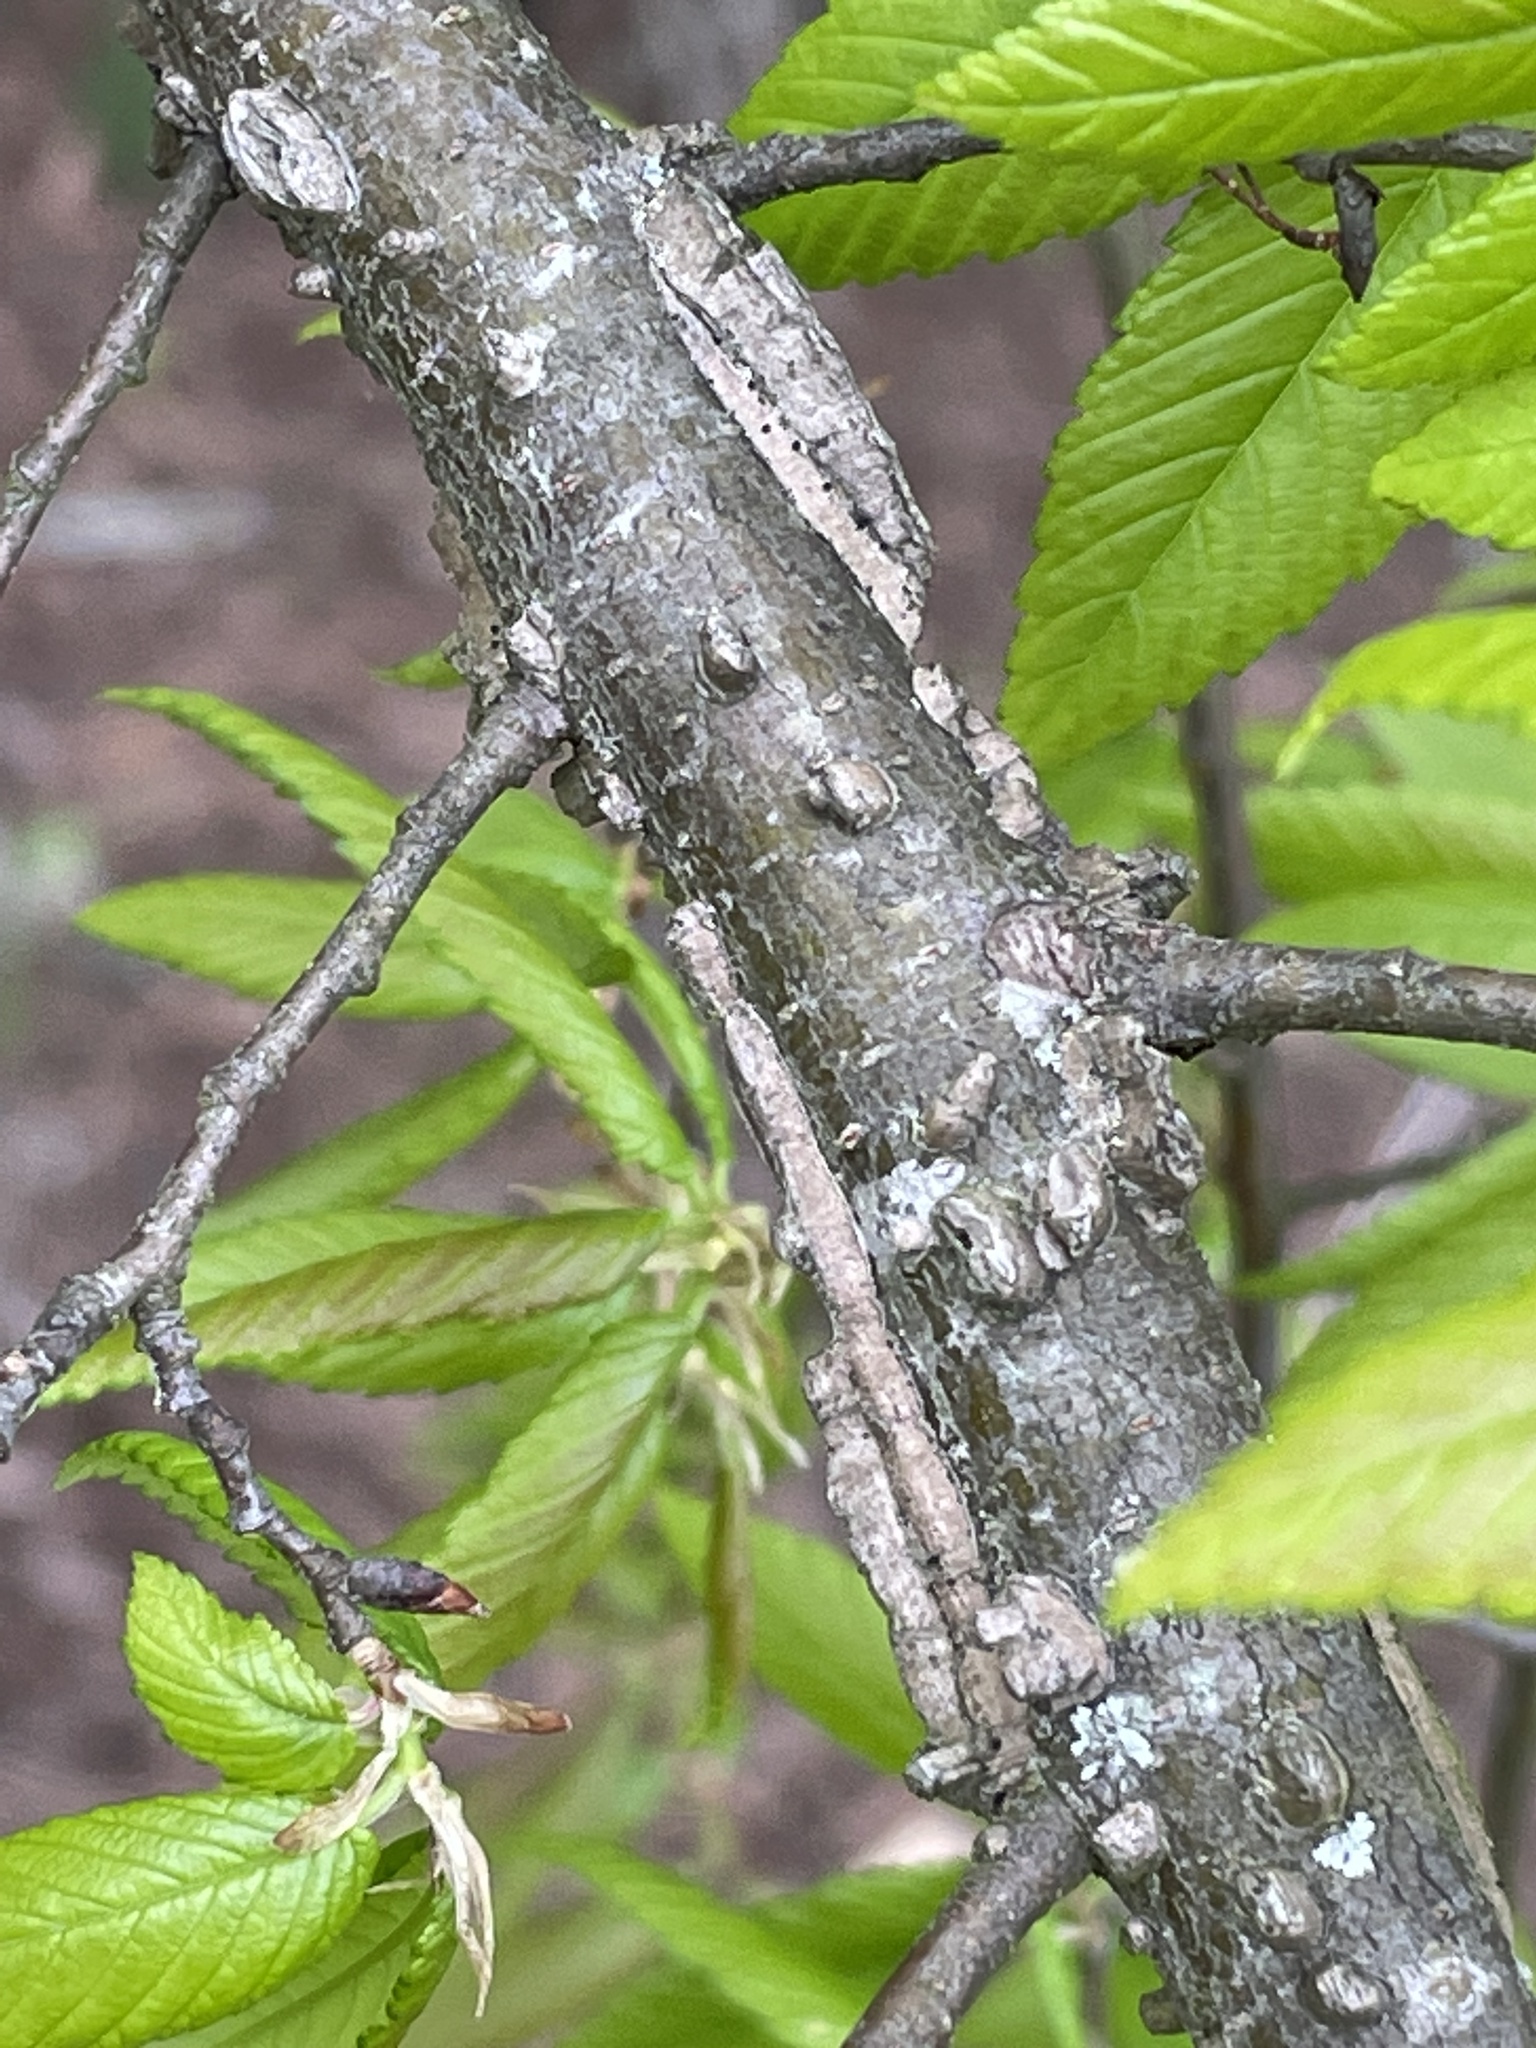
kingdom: Plantae
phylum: Tracheophyta
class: Magnoliopsida
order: Rosales
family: Ulmaceae
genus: Ulmus
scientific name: Ulmus alata
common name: Winged elm
